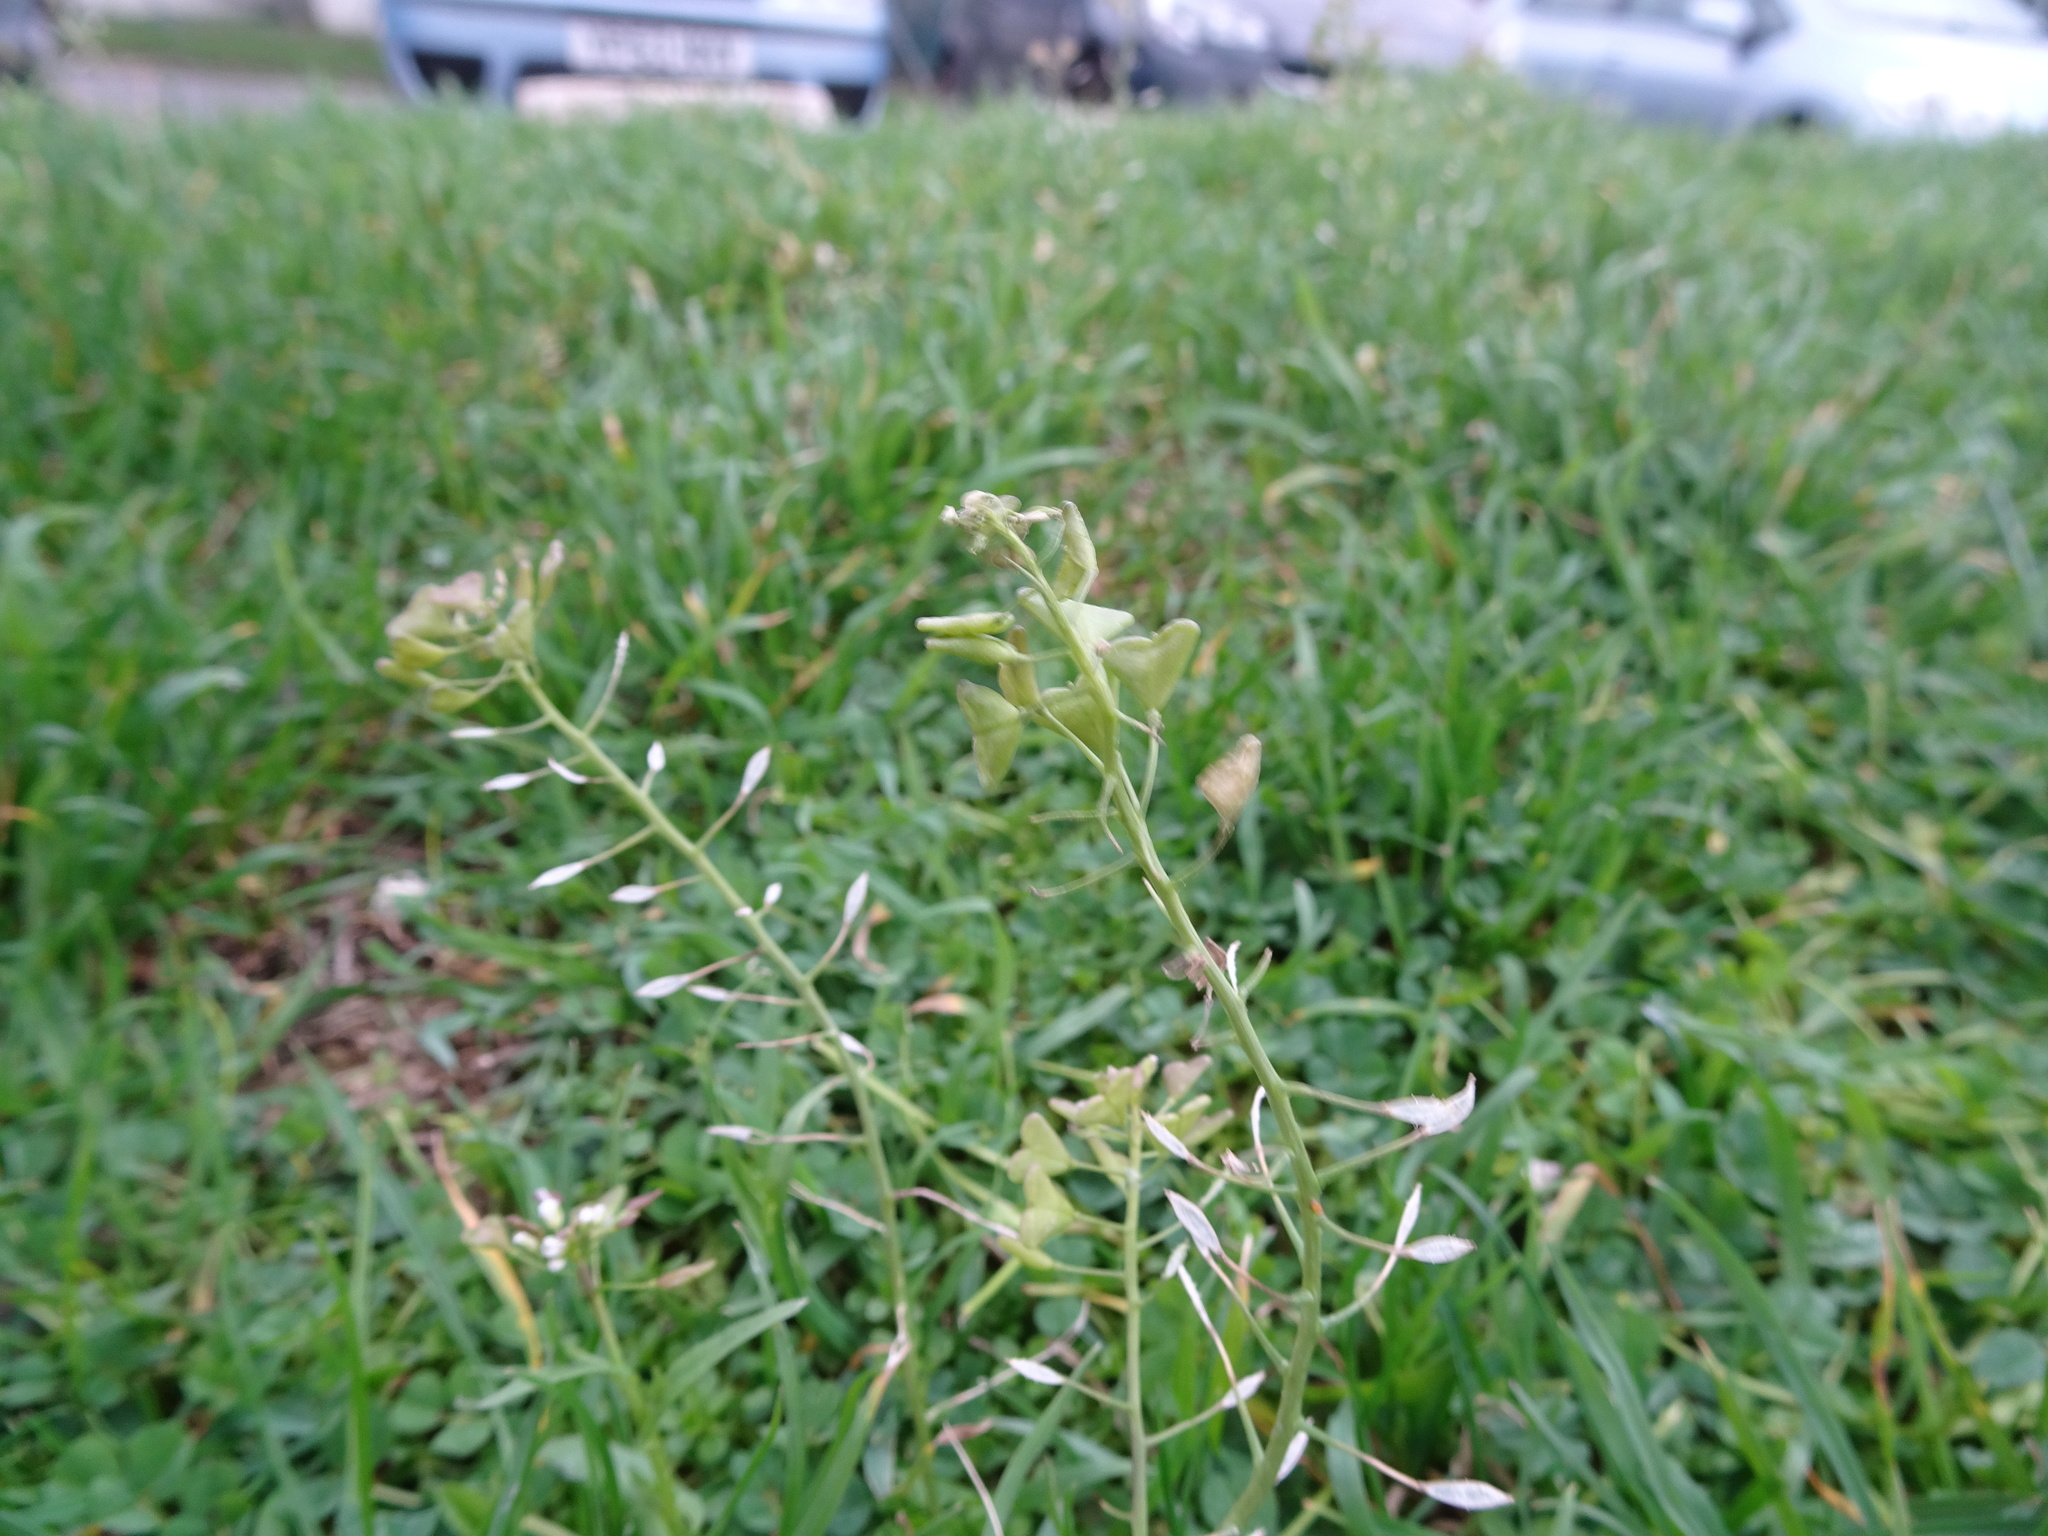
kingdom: Plantae
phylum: Tracheophyta
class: Magnoliopsida
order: Brassicales
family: Brassicaceae
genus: Capsella
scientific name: Capsella bursa-pastoris
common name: Shepherd's purse
